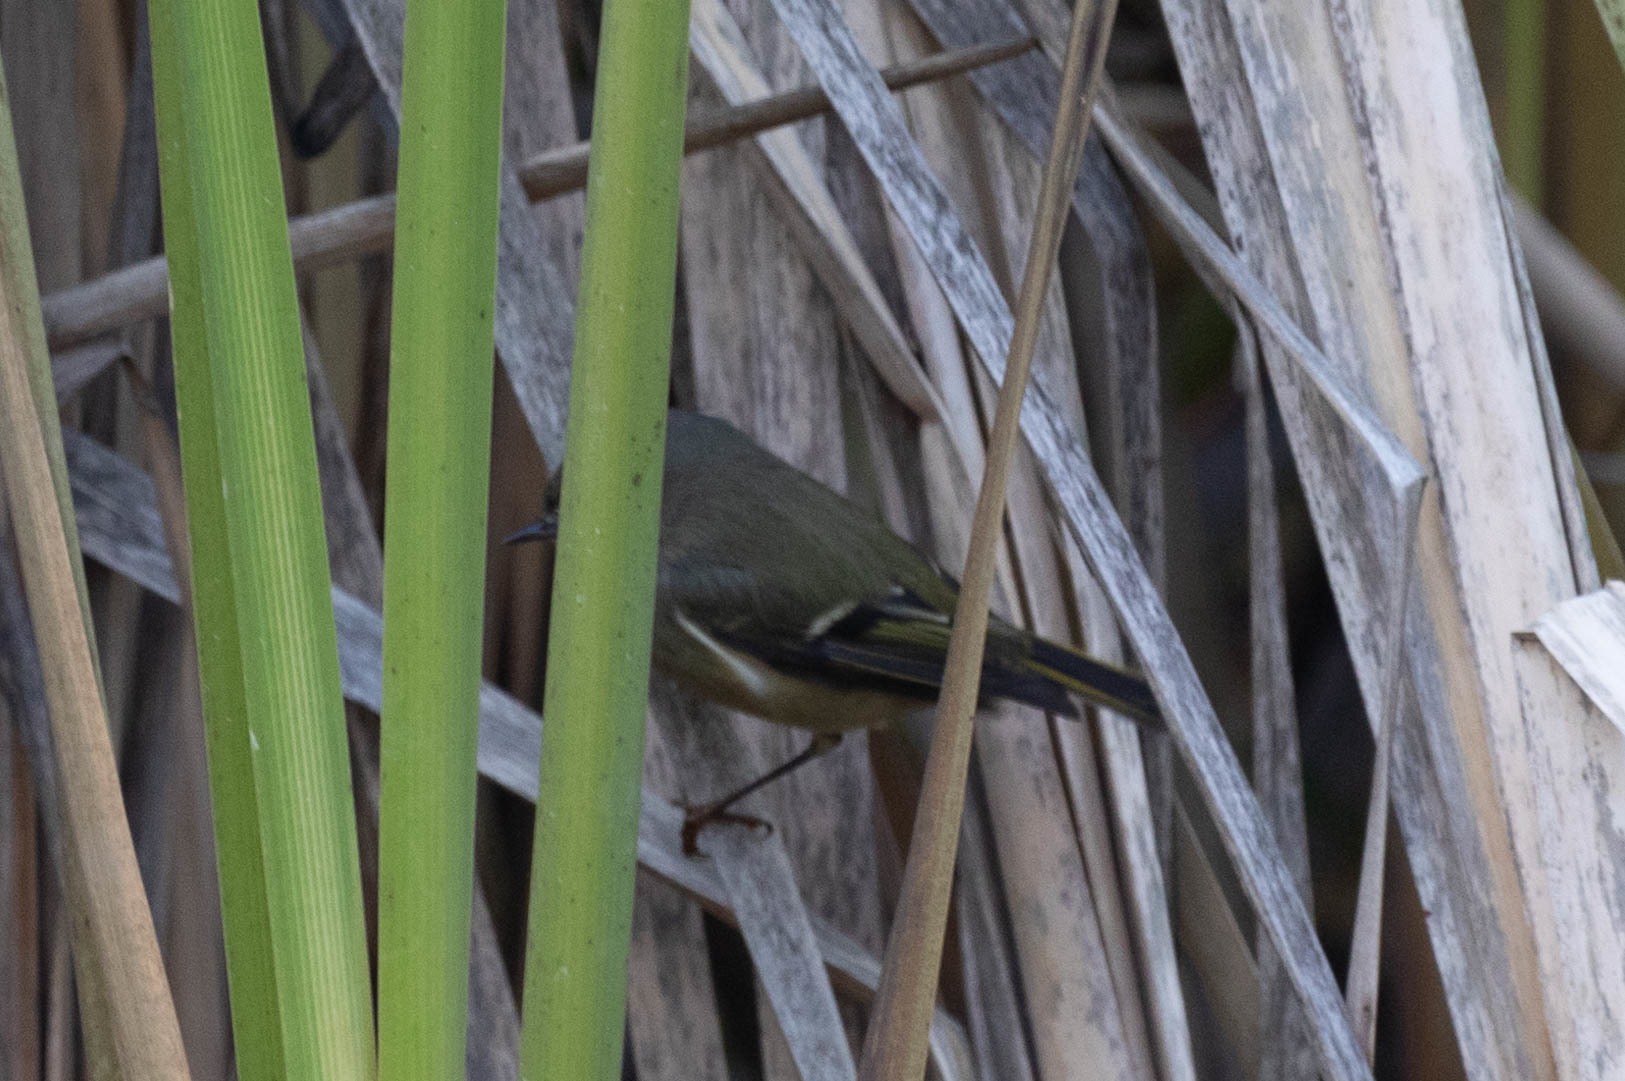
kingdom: Animalia
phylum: Chordata
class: Aves
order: Passeriformes
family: Regulidae
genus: Regulus
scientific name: Regulus calendula
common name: Ruby-crowned kinglet
